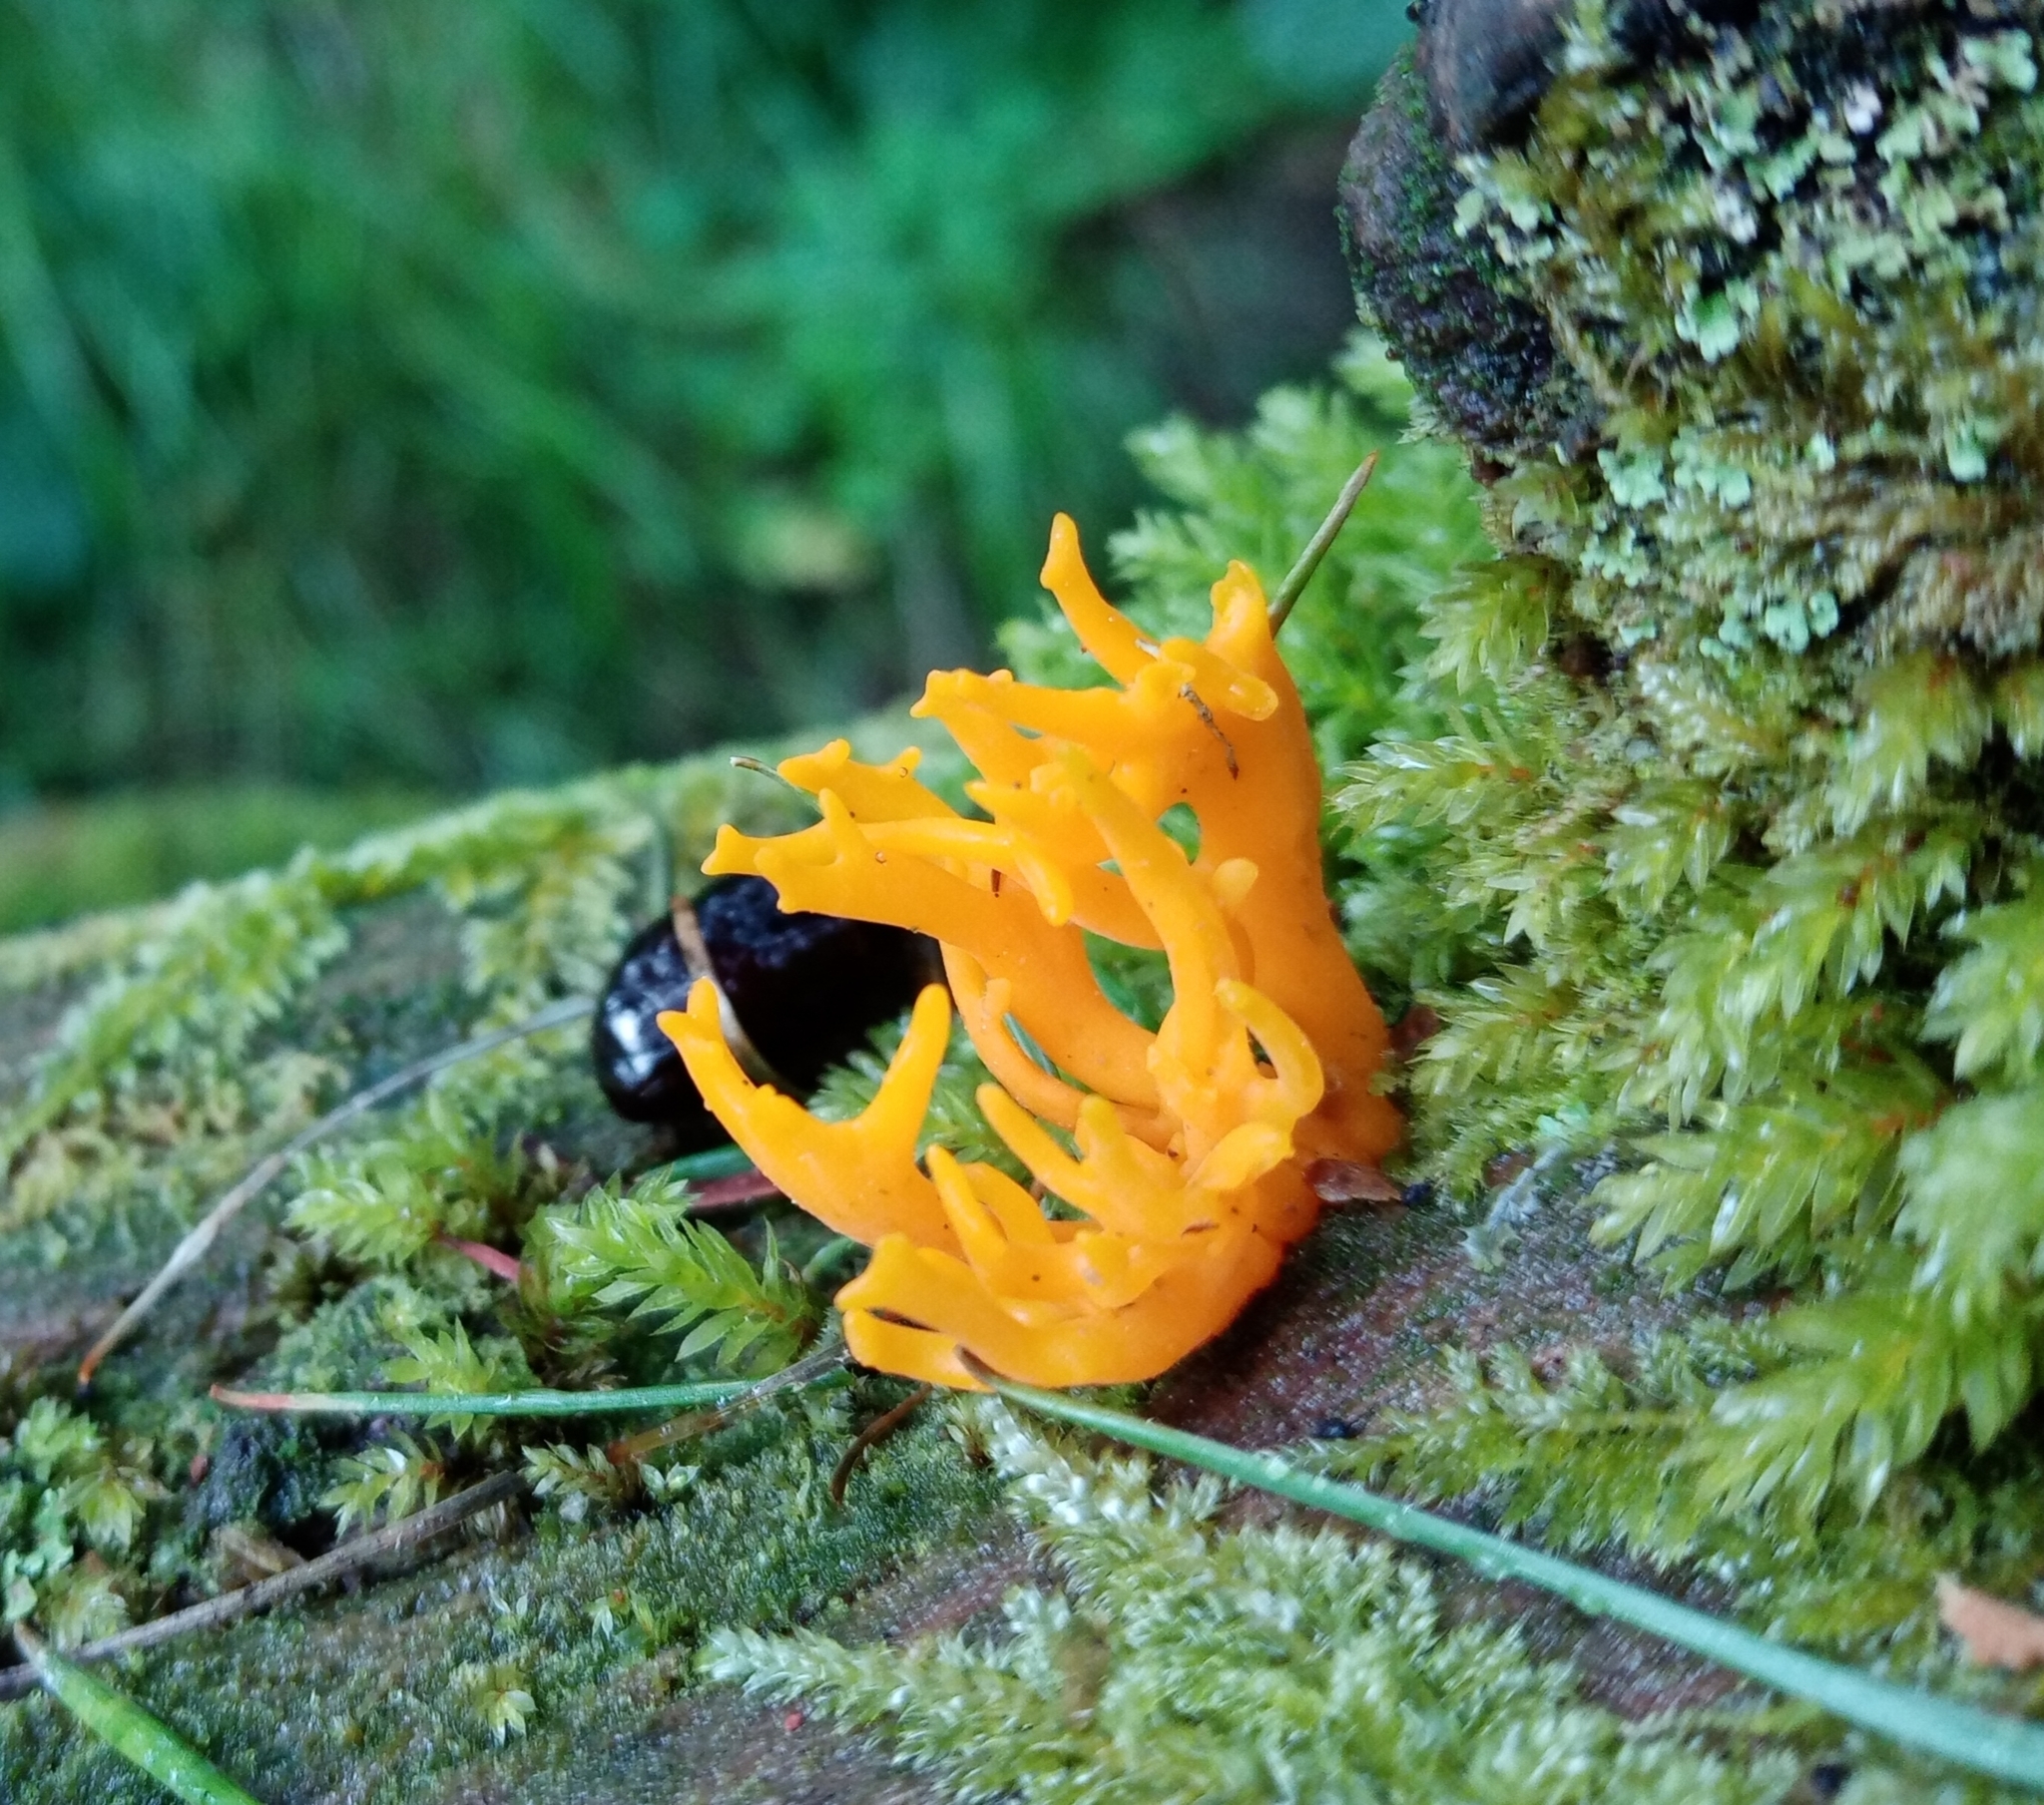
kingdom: Fungi
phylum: Basidiomycota
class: Dacrymycetes
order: Dacrymycetales
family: Dacrymycetaceae
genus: Calocera
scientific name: Calocera viscosa
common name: Yellow stagshorn
